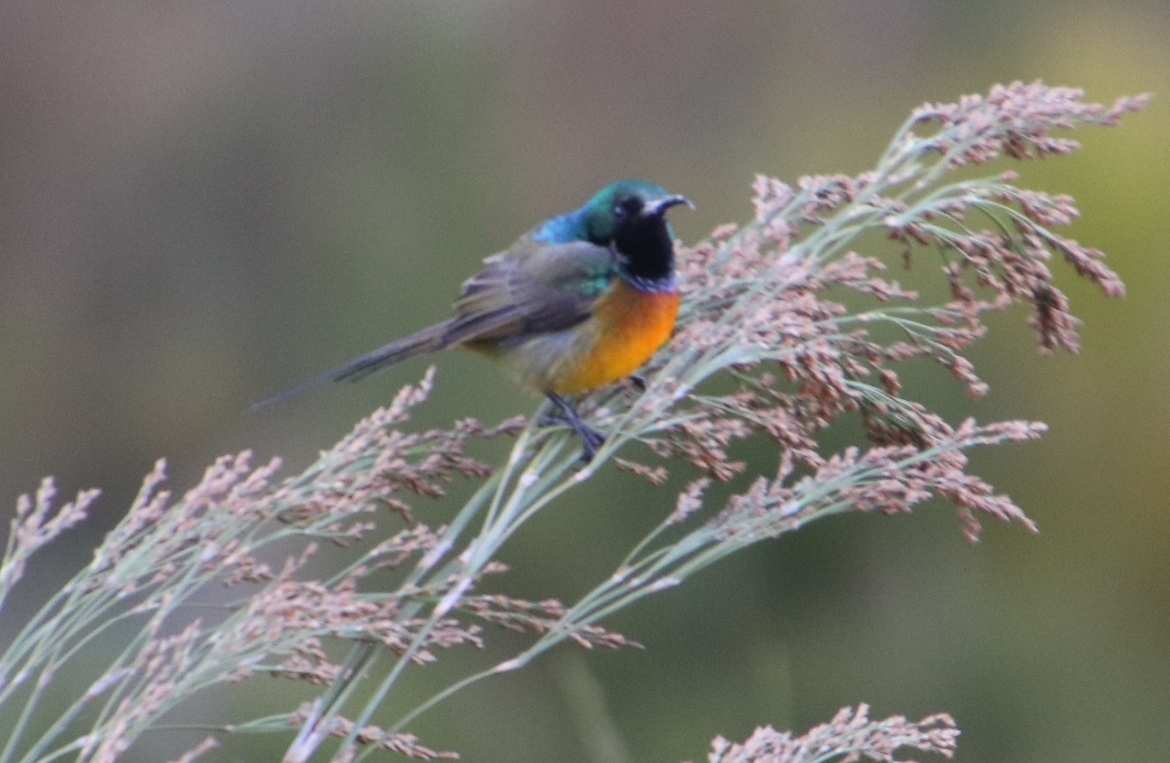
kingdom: Animalia
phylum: Chordata
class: Aves
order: Passeriformes
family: Nectariniidae
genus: Anthobaphes
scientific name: Anthobaphes violacea
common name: Orange-breasted sunbird
